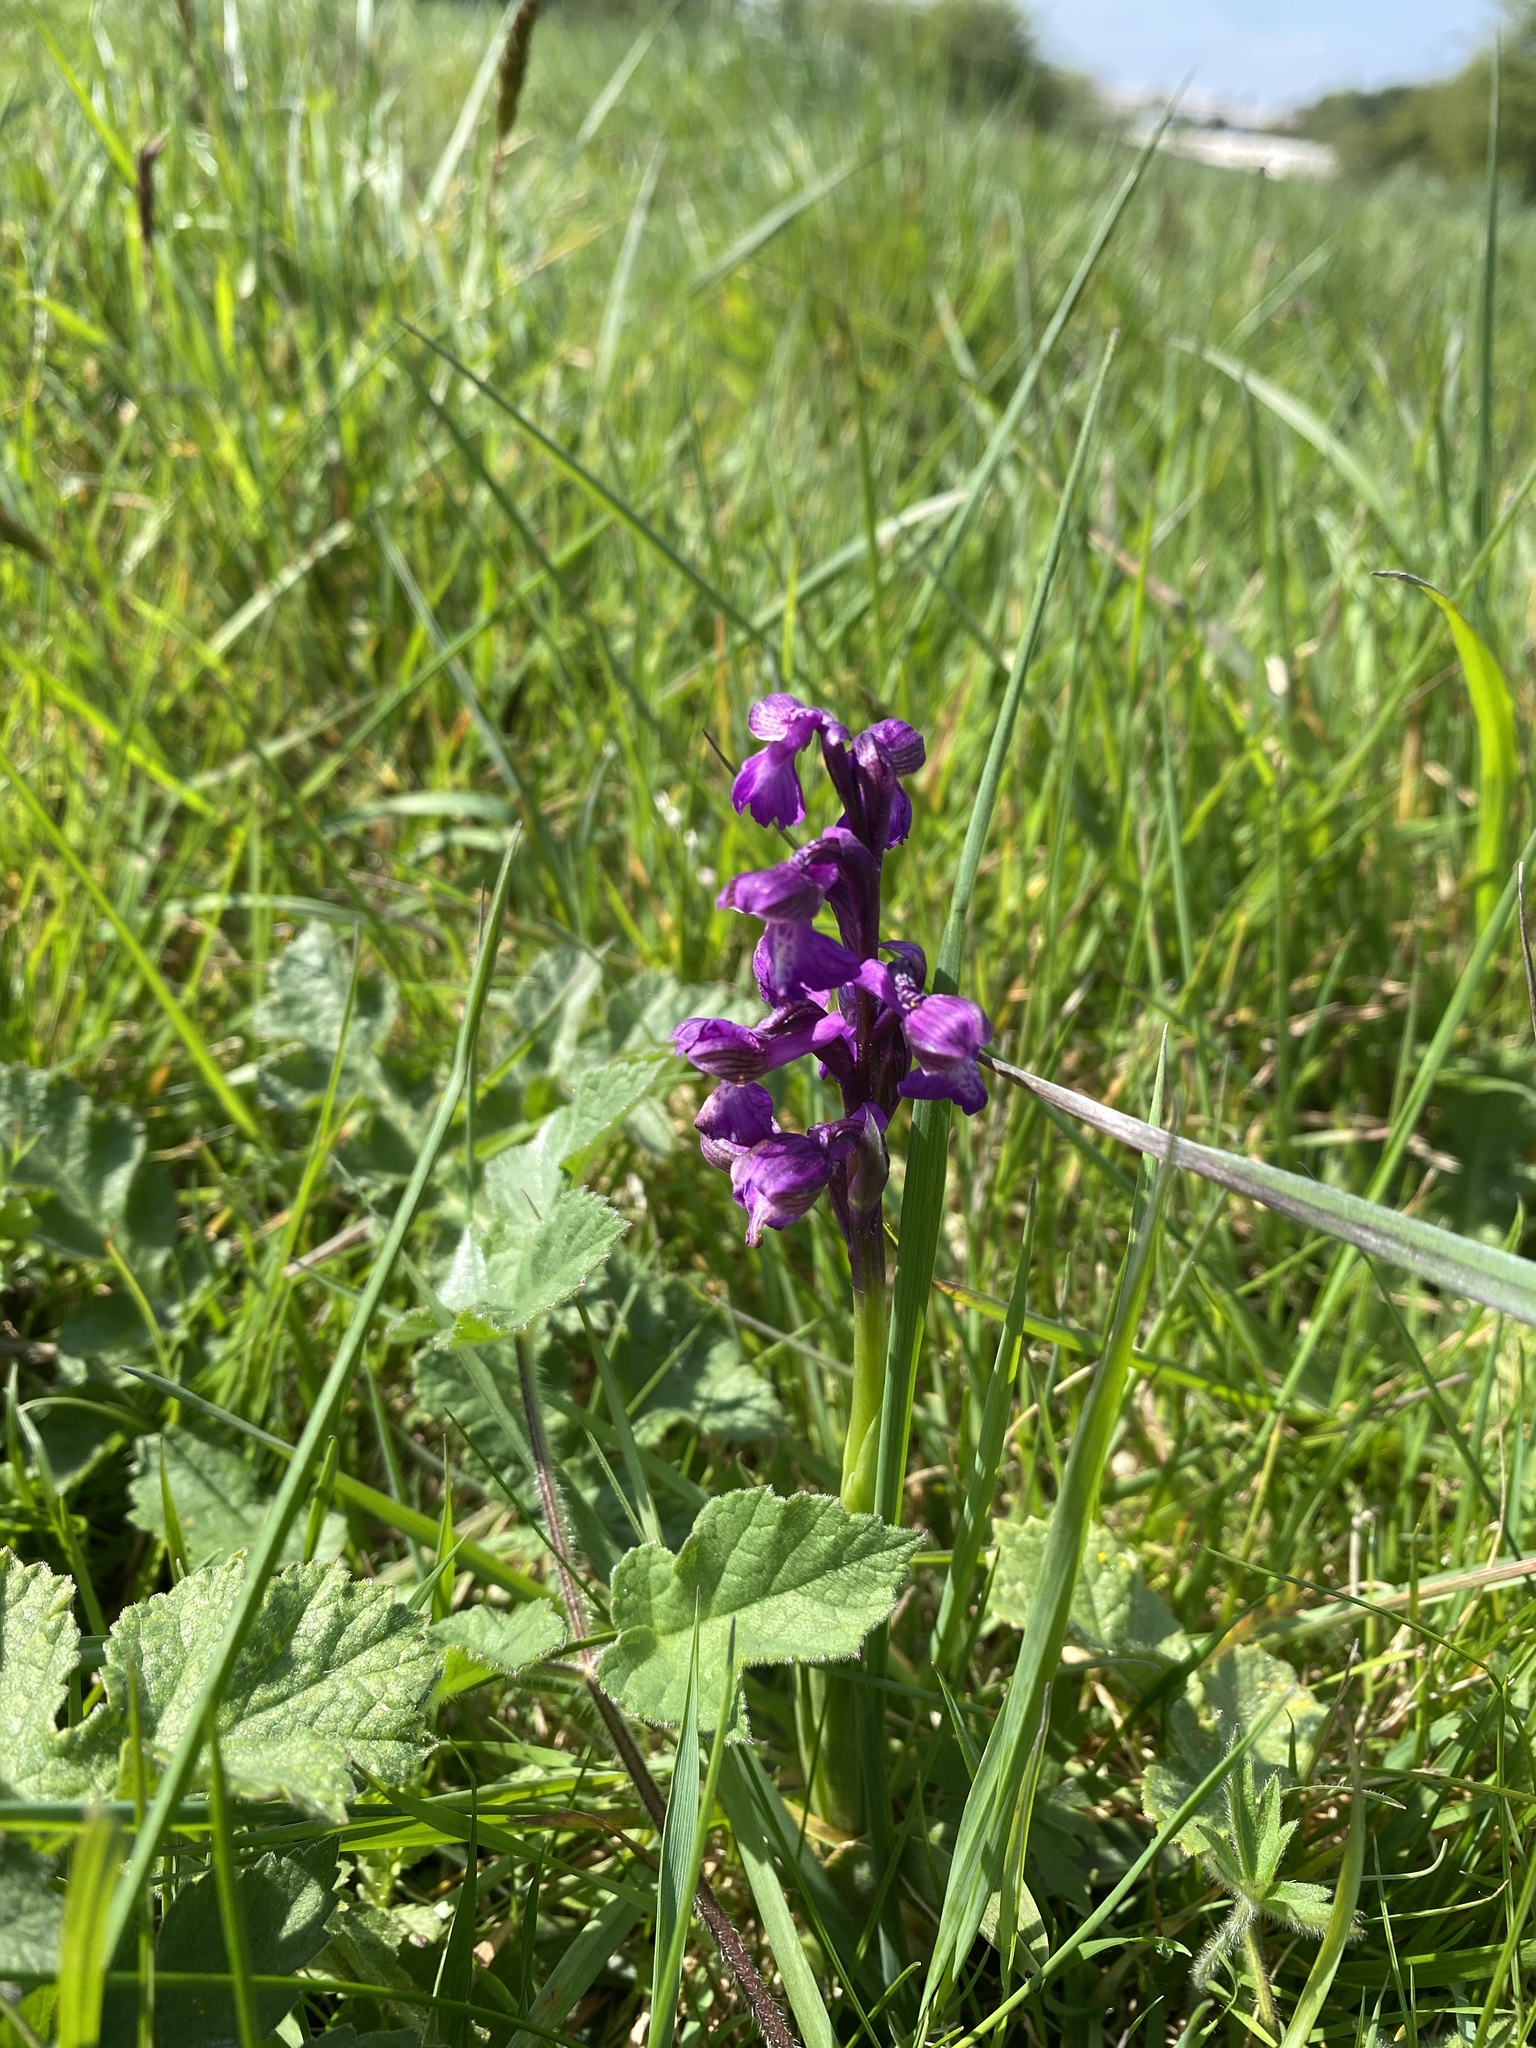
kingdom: Plantae
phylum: Tracheophyta
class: Liliopsida
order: Asparagales
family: Orchidaceae
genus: Anacamptis
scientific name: Anacamptis morio
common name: Green-winged orchid
